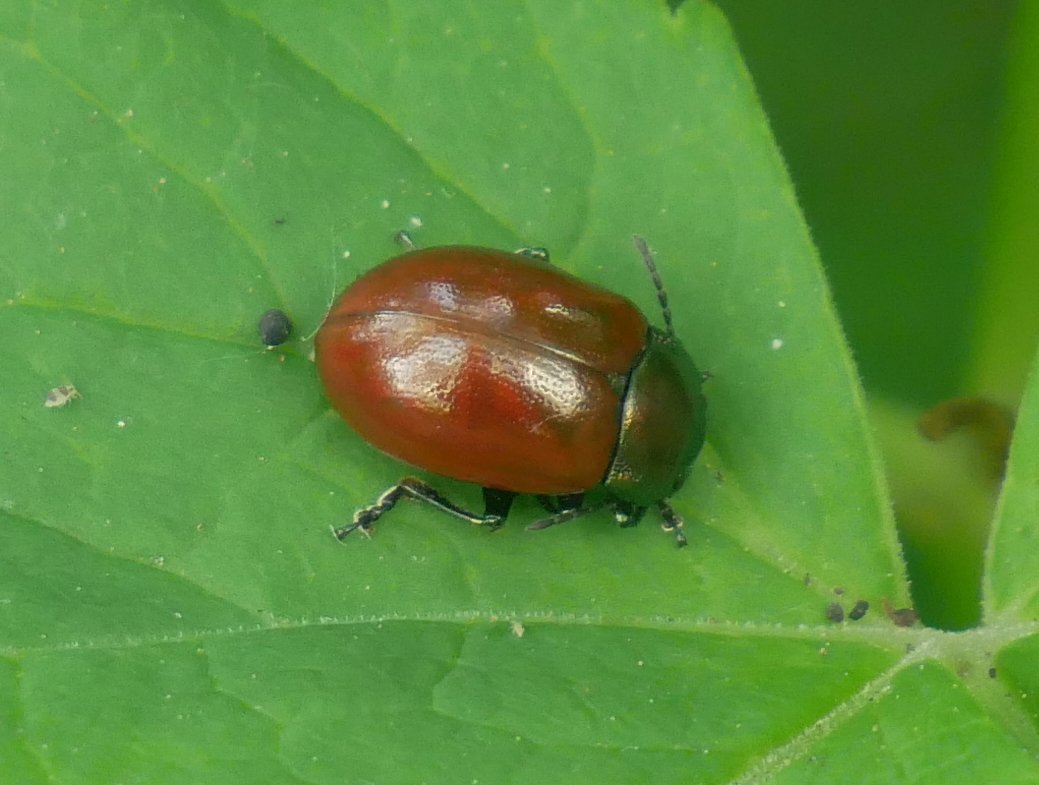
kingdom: Animalia
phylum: Arthropoda
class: Insecta
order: Coleoptera
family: Chrysomelidae
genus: Chrysomela
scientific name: Chrysomela polita
